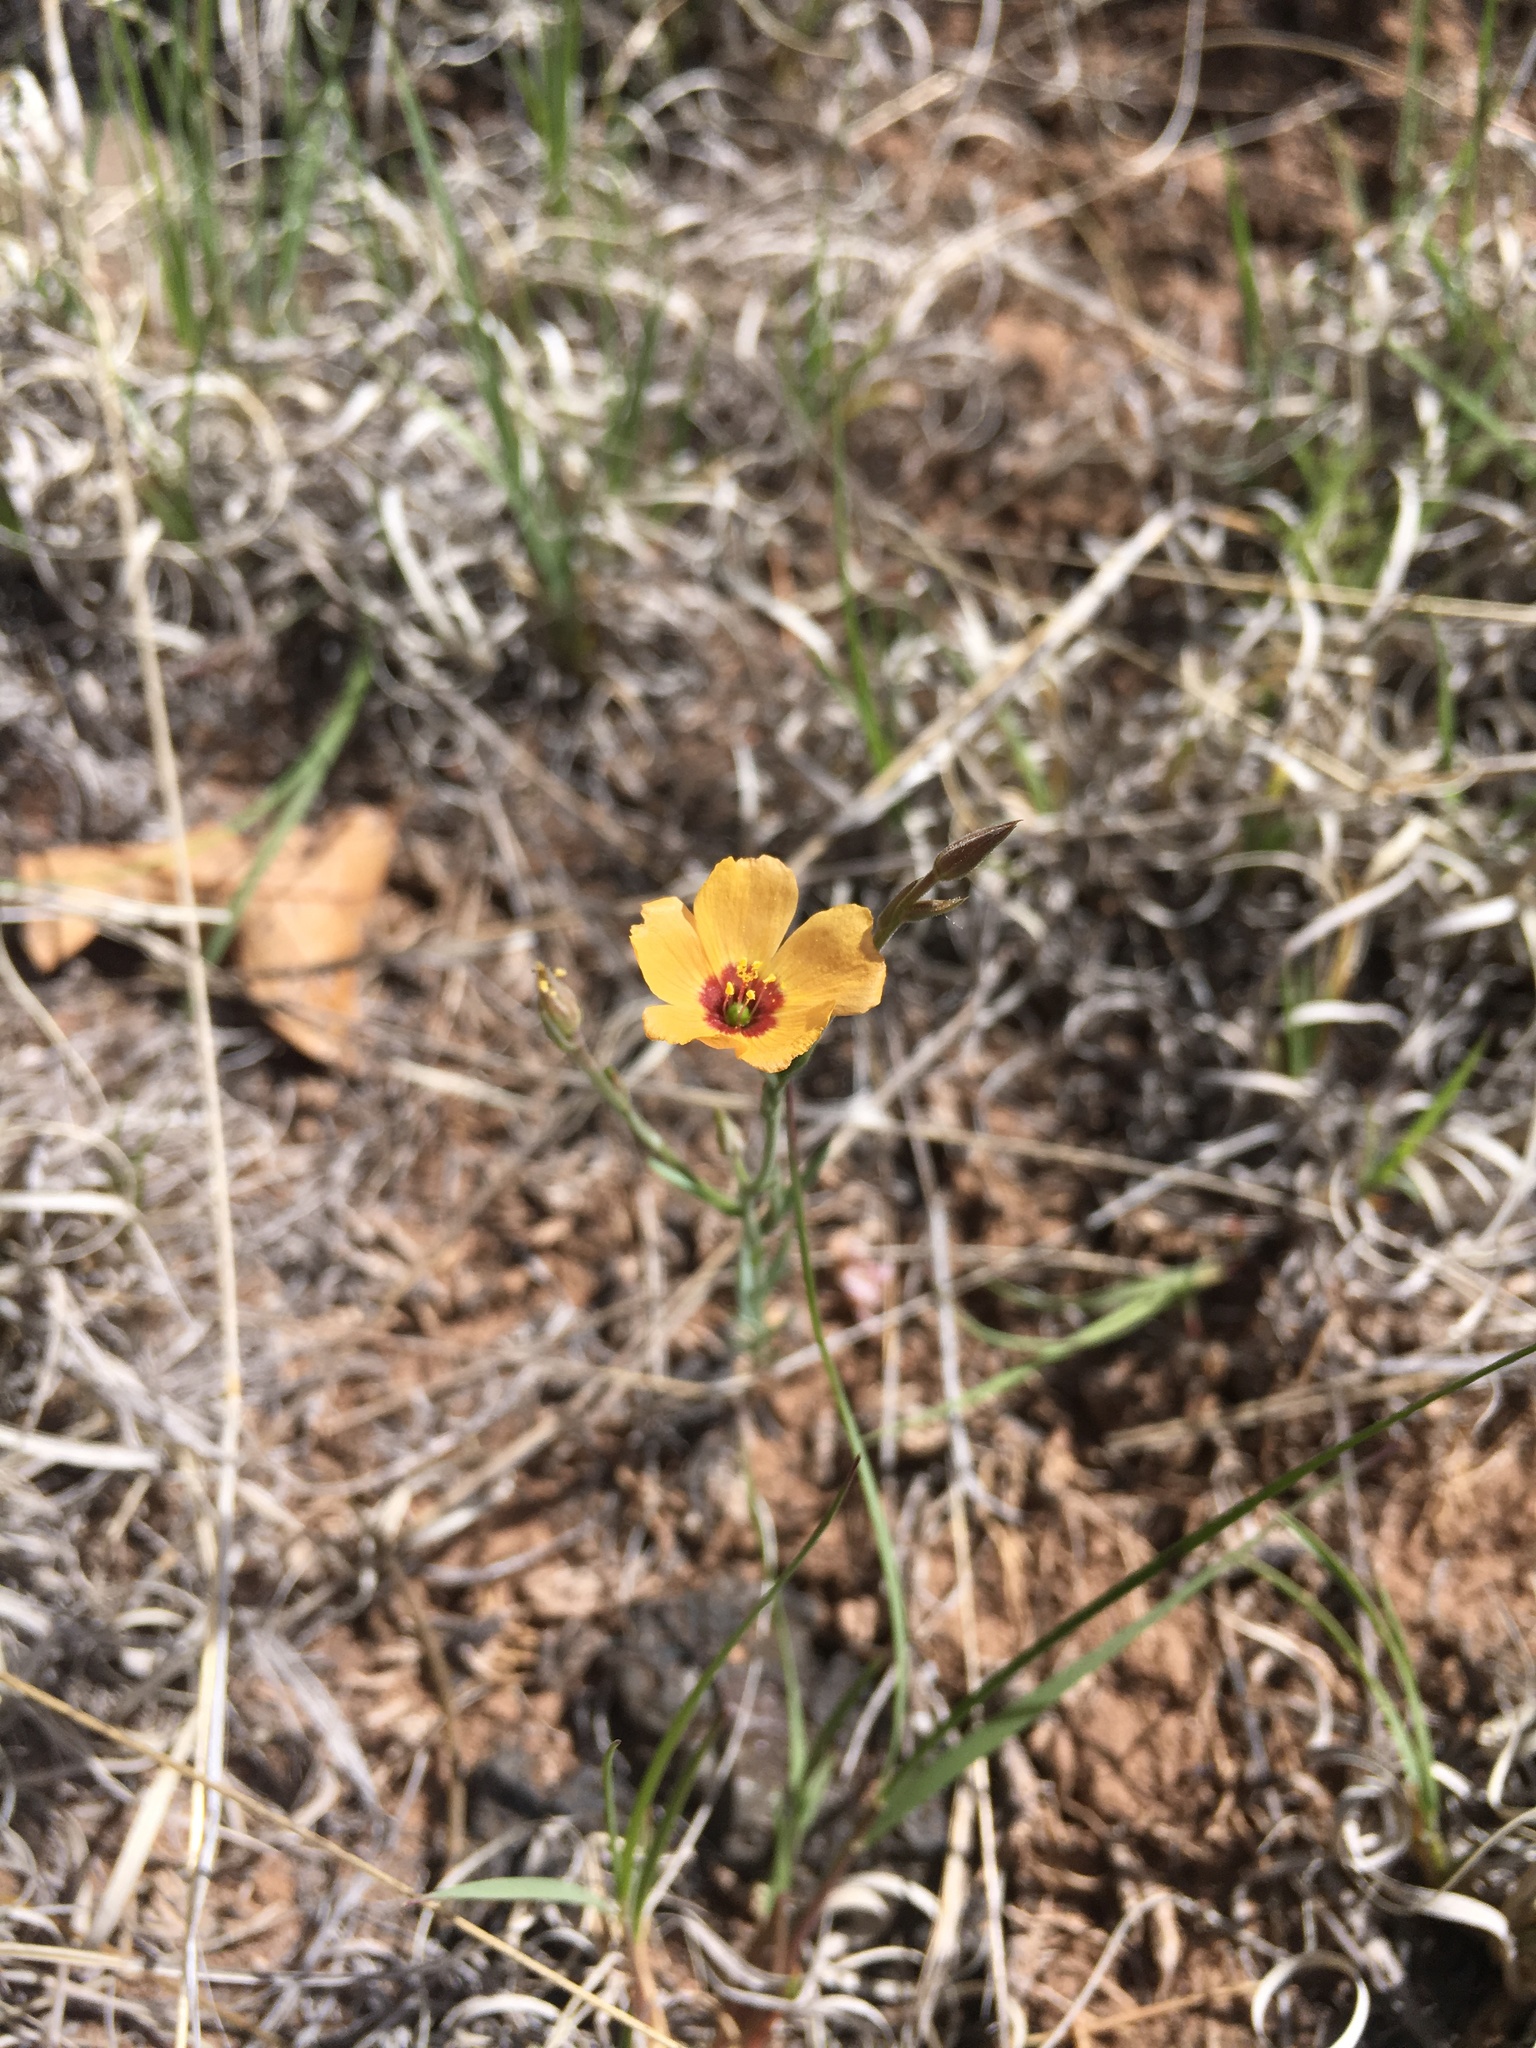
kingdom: Plantae
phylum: Tracheophyta
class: Magnoliopsida
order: Malpighiales
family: Linaceae
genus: Linum
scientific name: Linum puberulum
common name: Plains flax
